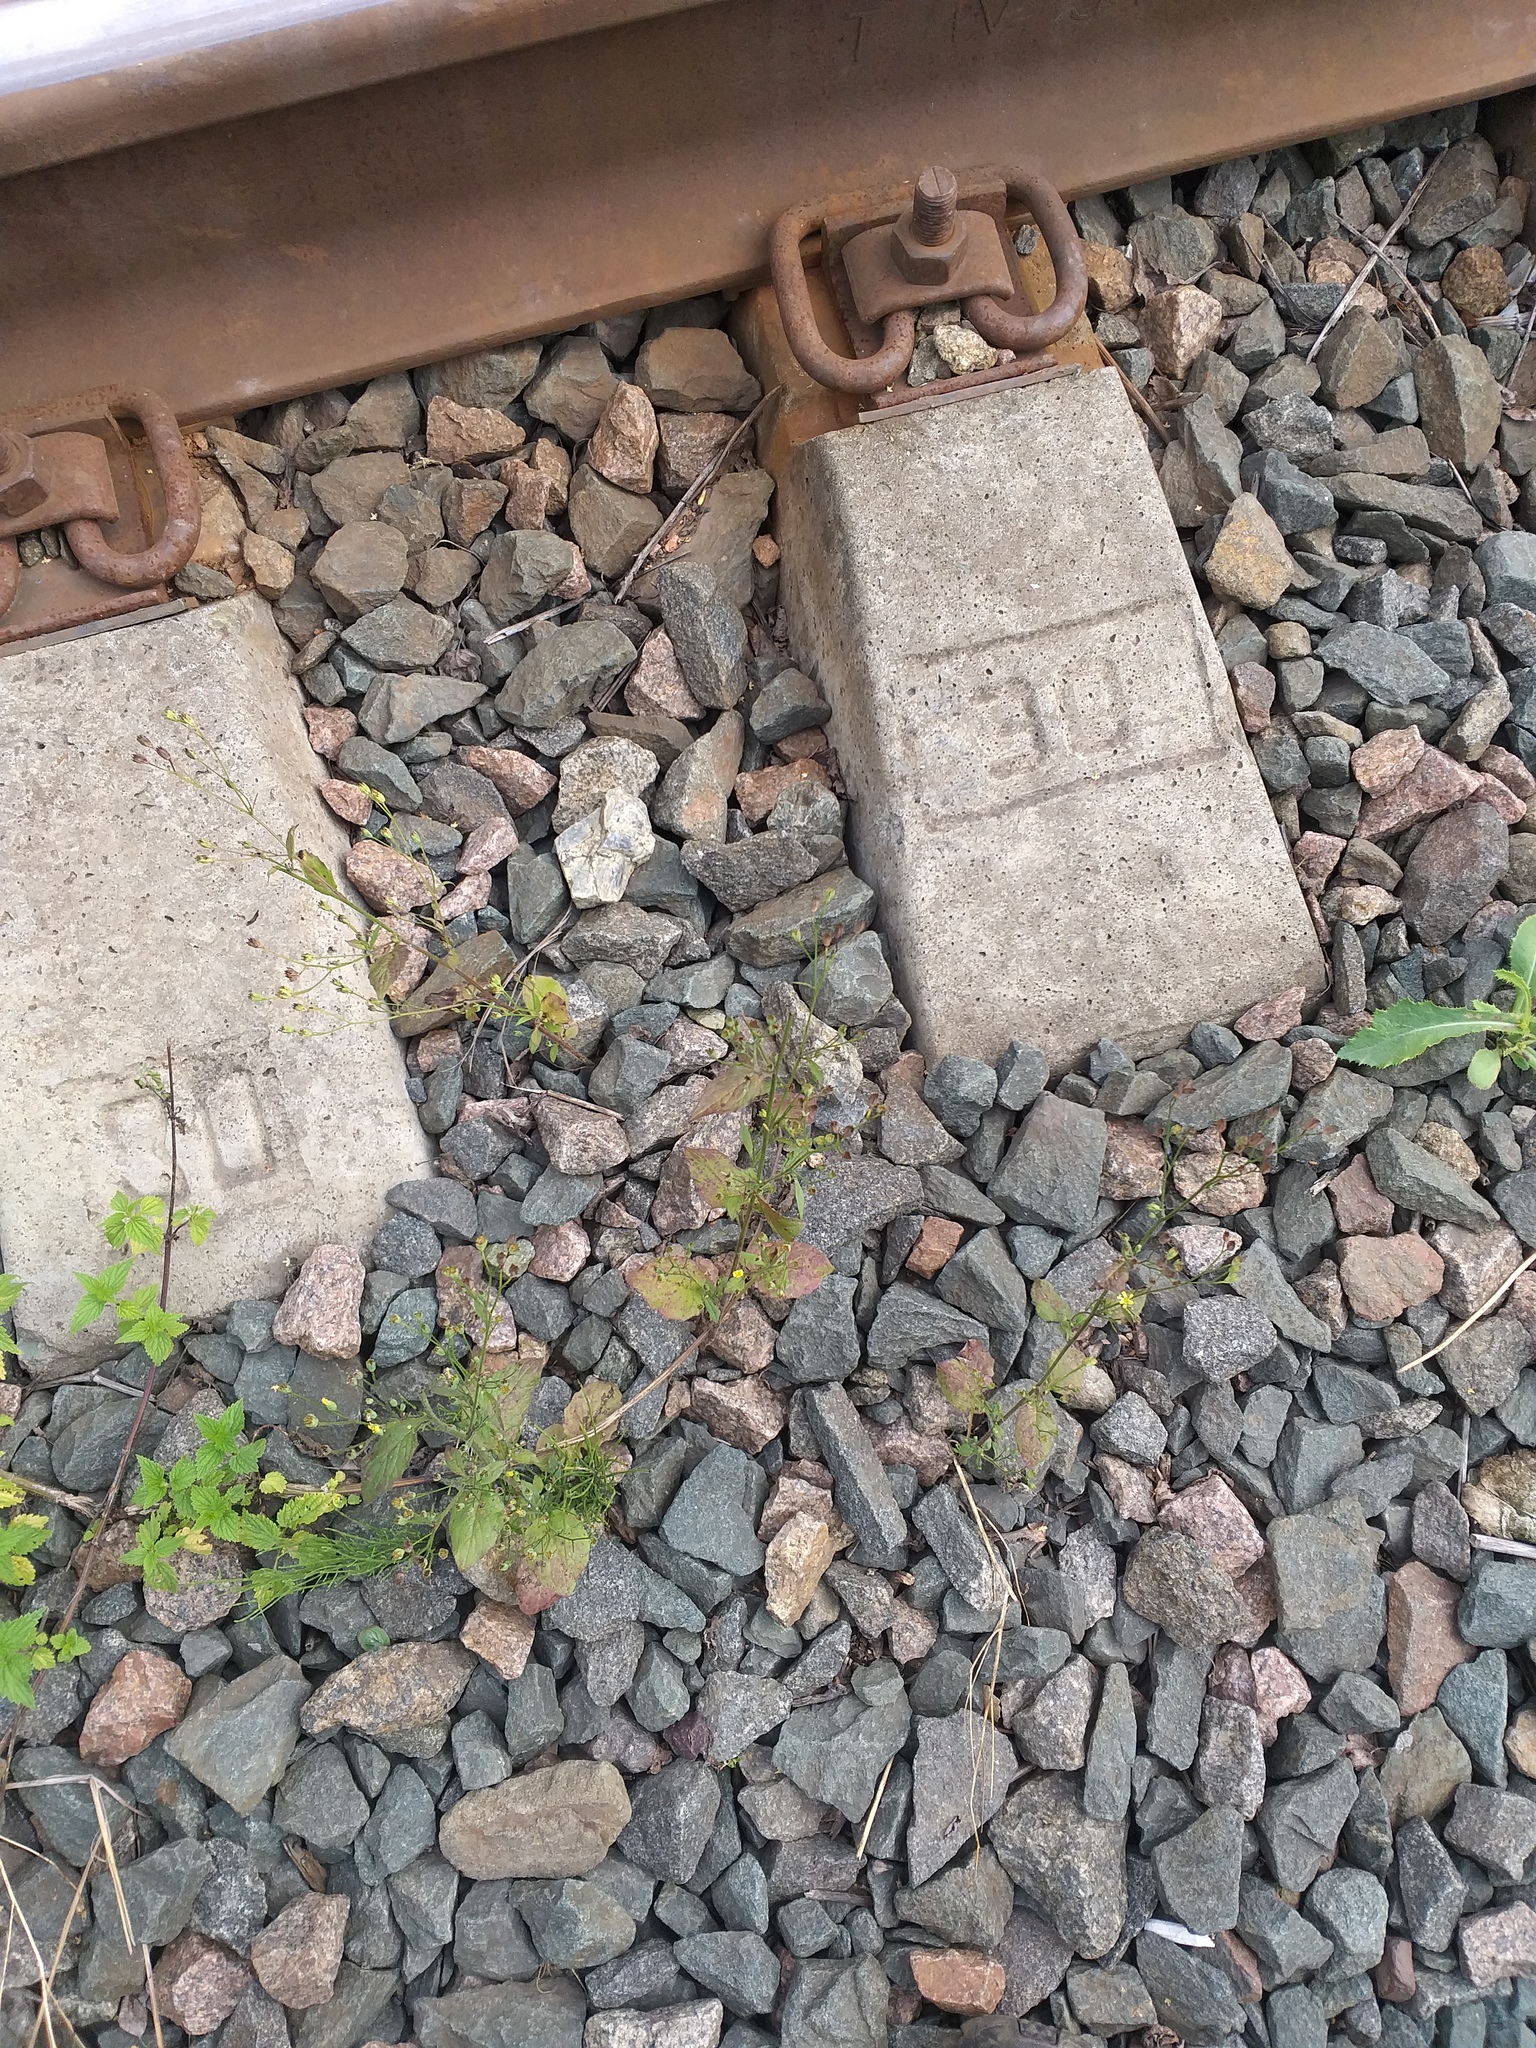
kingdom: Plantae
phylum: Tracheophyta
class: Magnoliopsida
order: Asterales
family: Asteraceae
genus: Lapsana
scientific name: Lapsana communis
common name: Nipplewort
